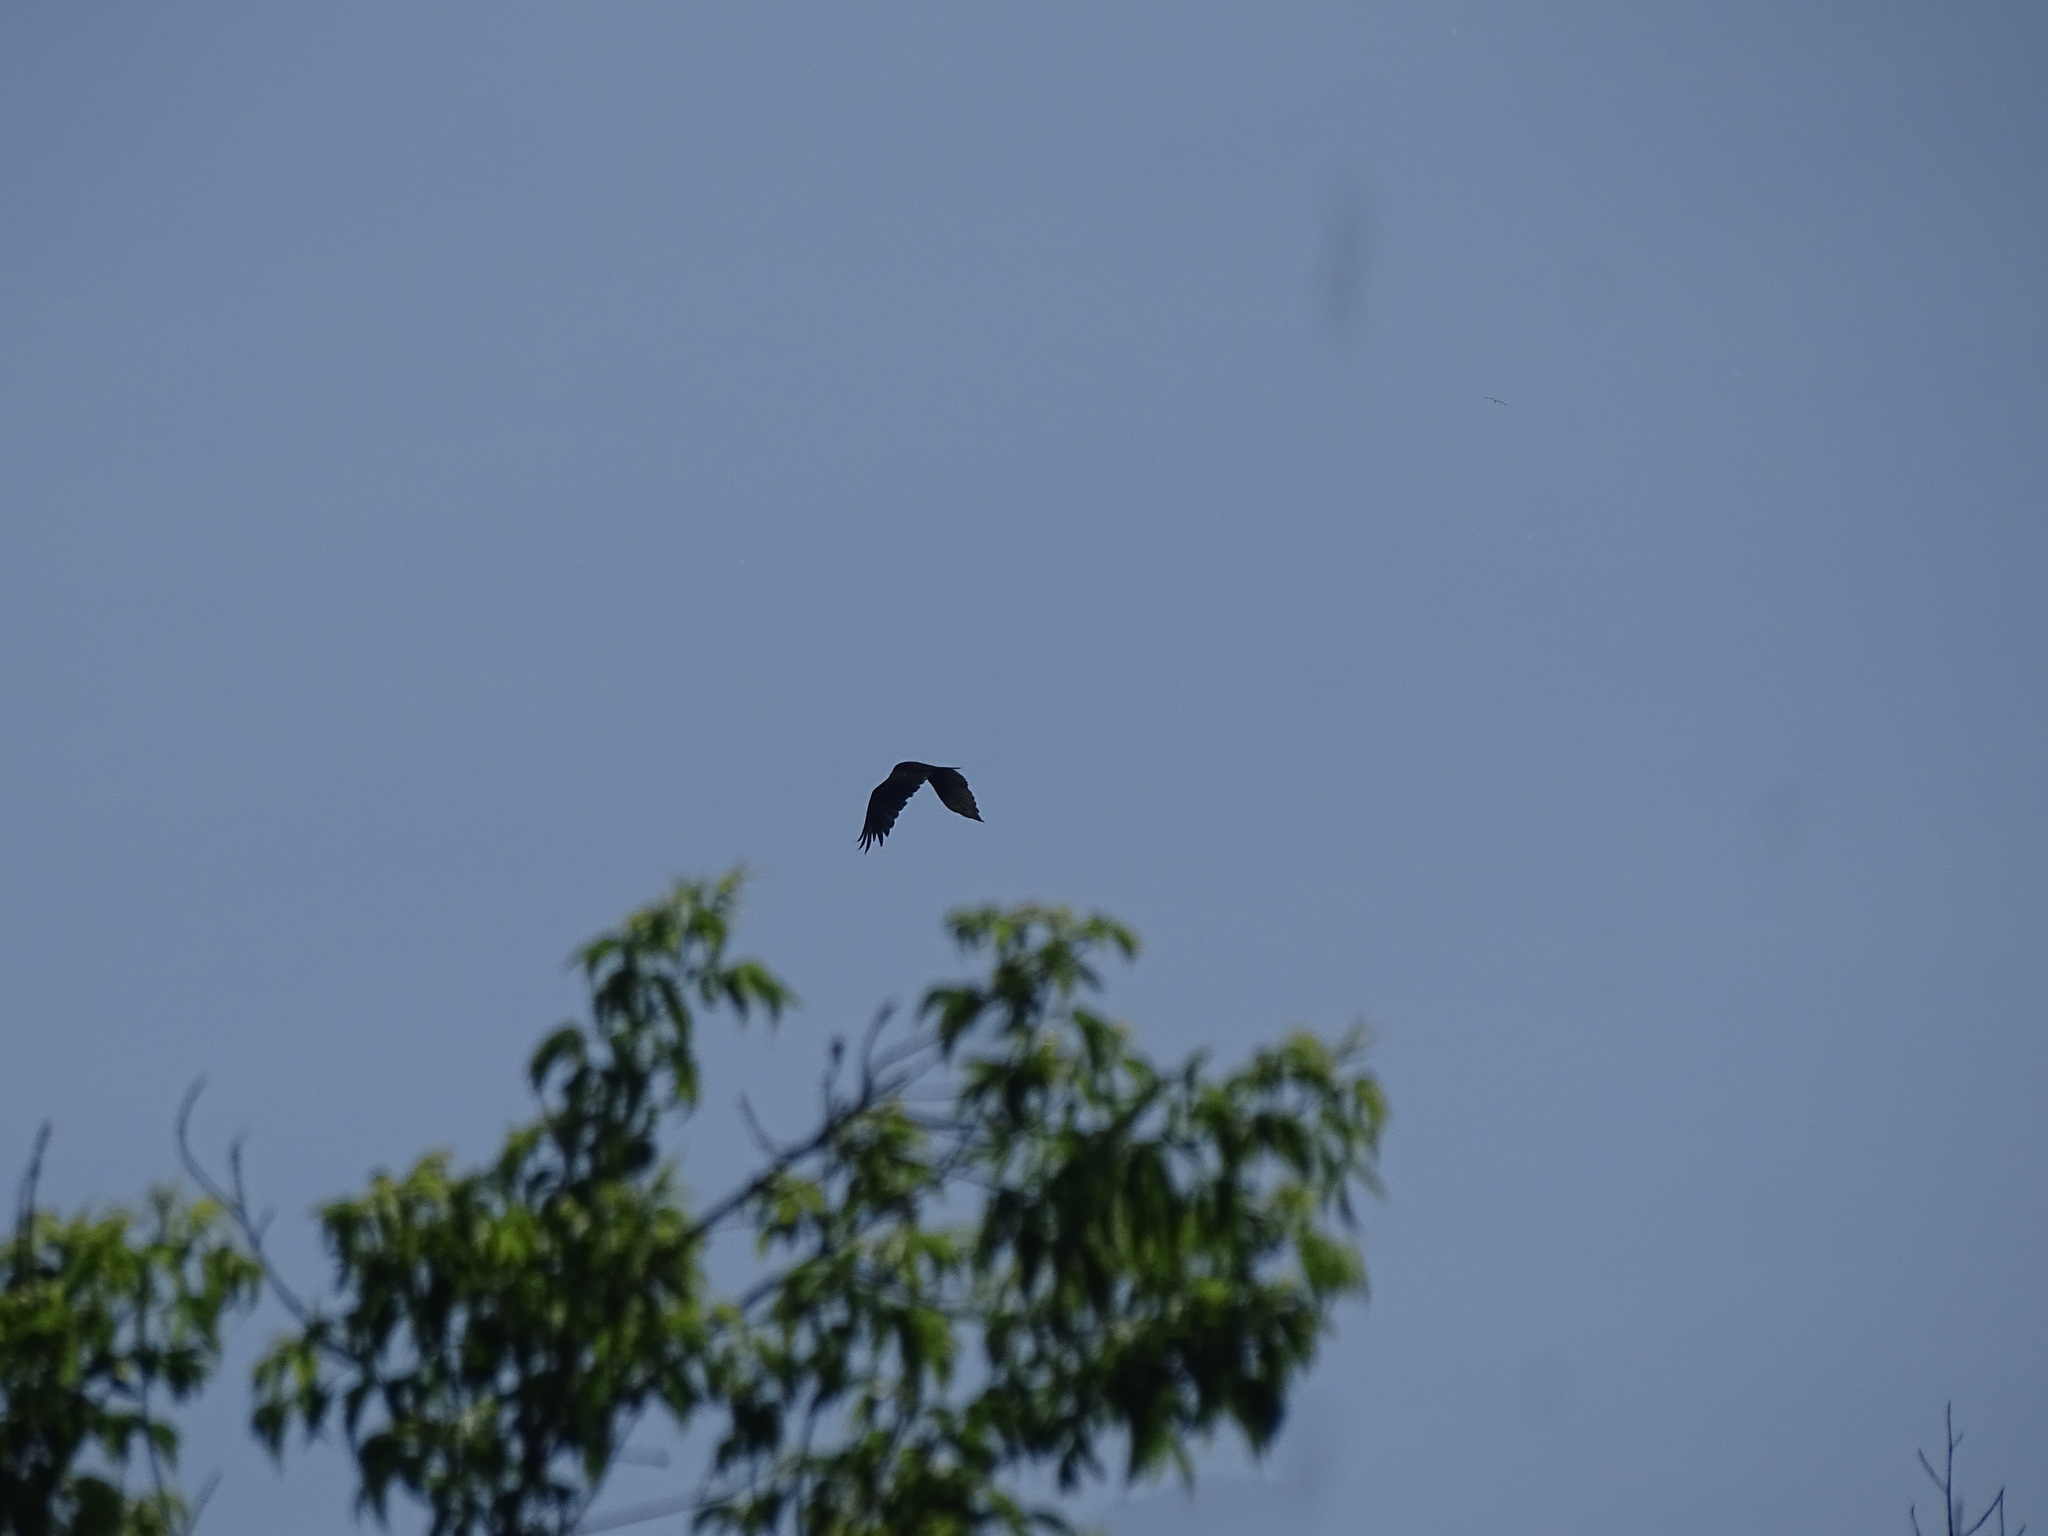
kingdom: Animalia
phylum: Chordata
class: Aves
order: Accipitriformes
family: Cathartidae
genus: Cathartes
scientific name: Cathartes aura
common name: Turkey vulture
